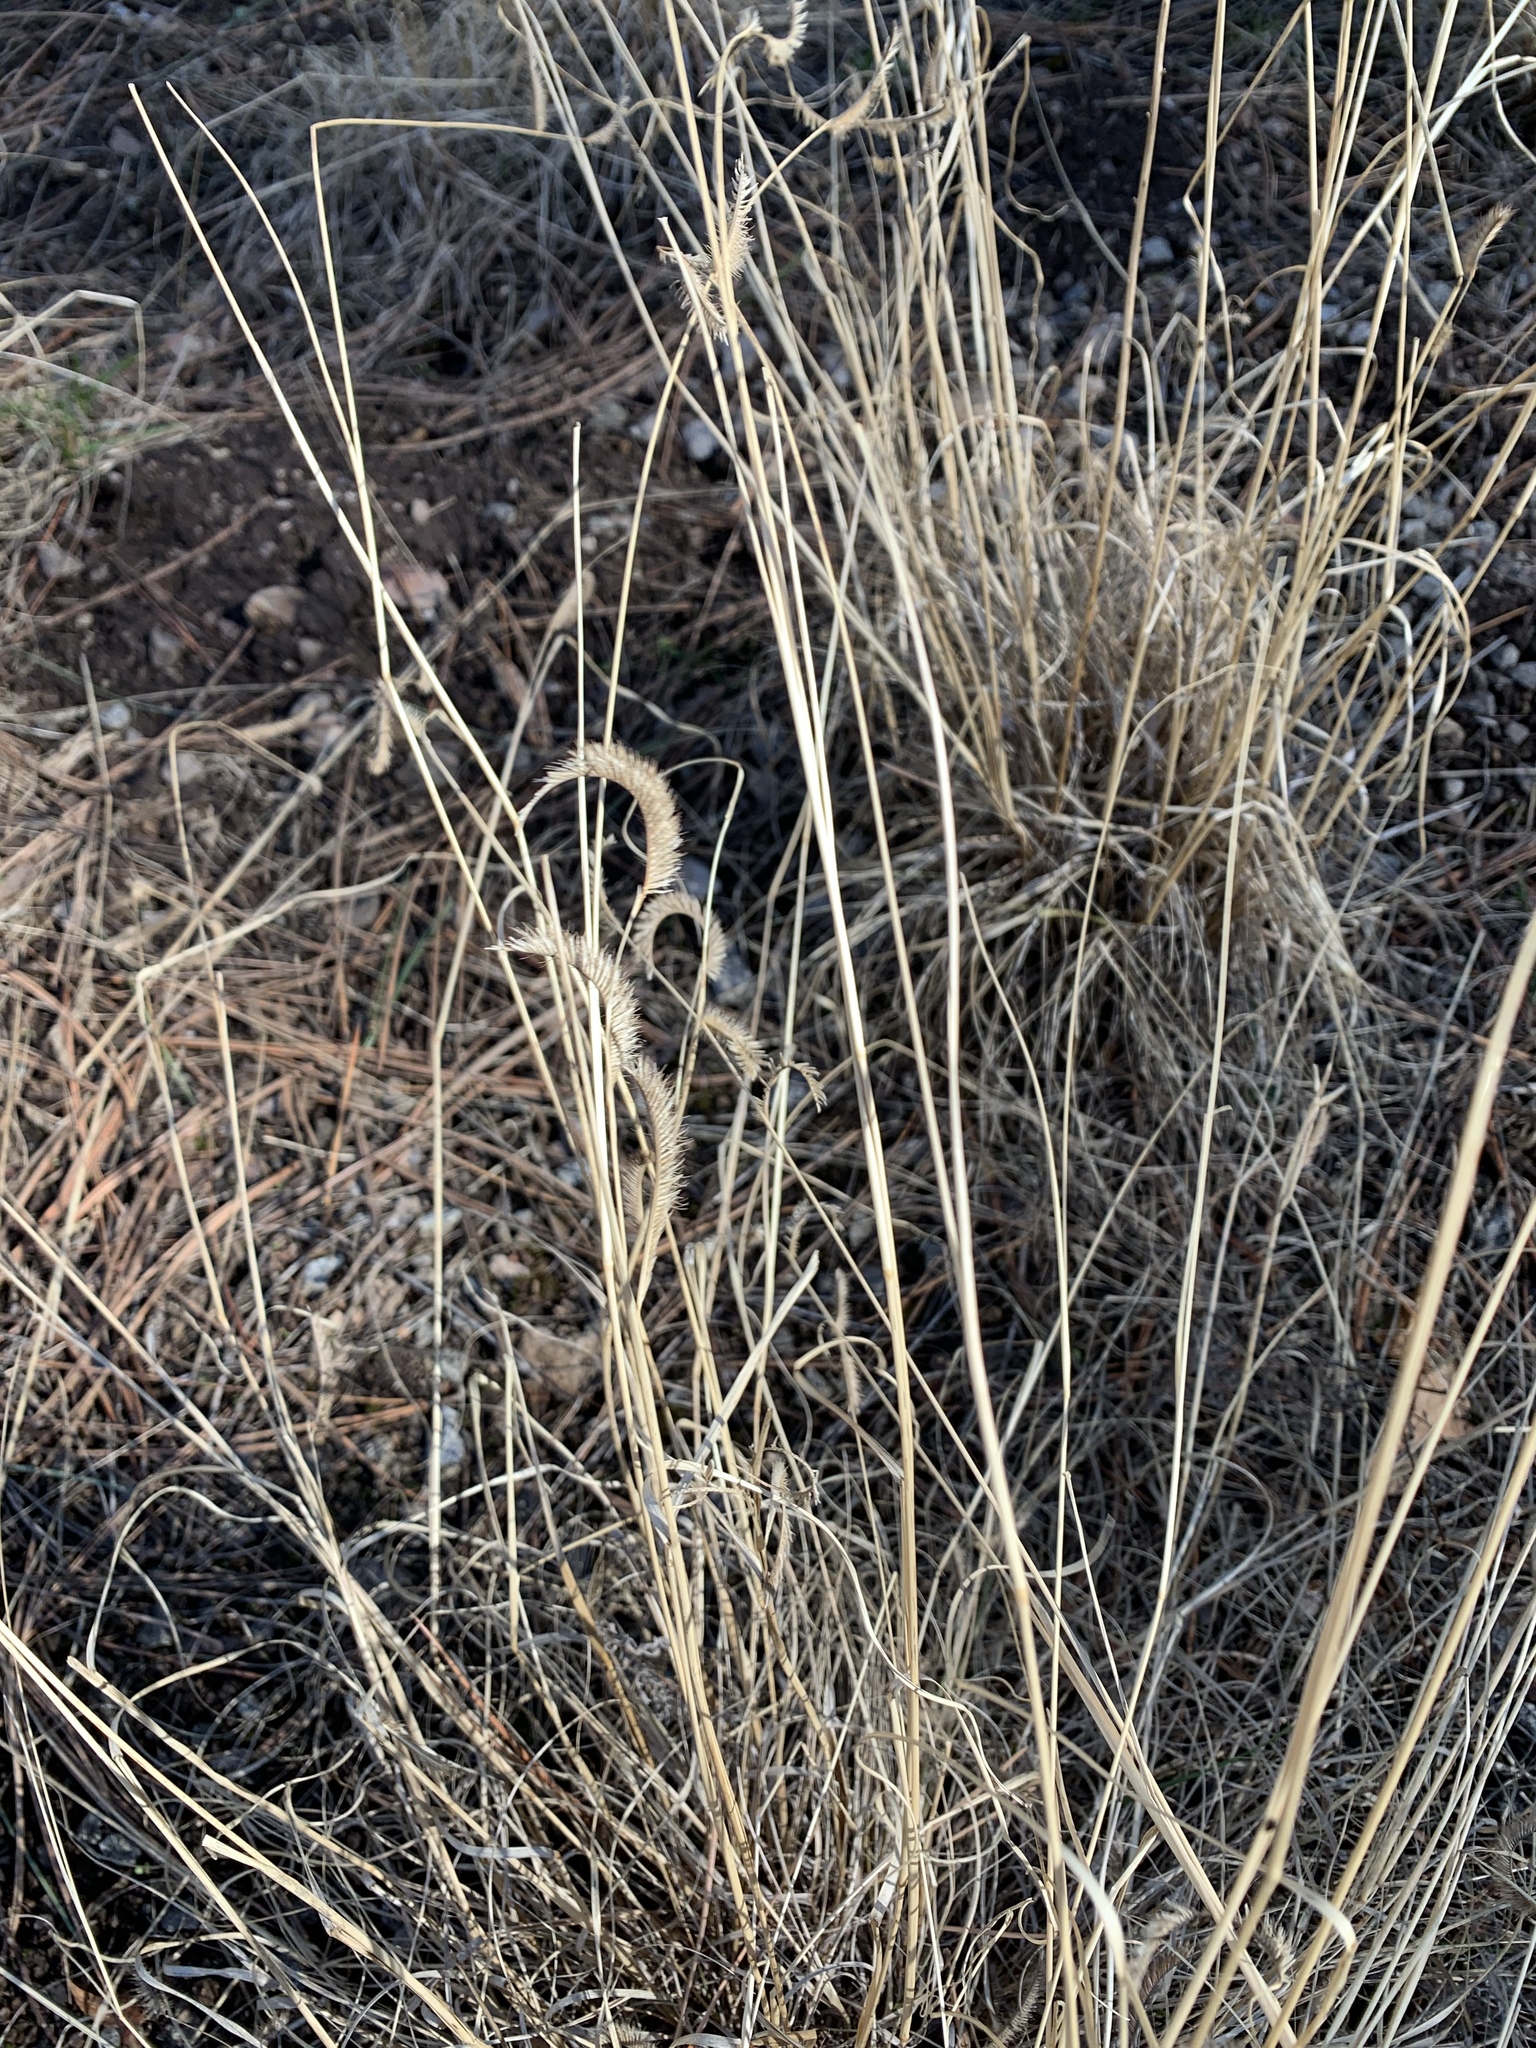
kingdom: Plantae
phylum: Tracheophyta
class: Liliopsida
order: Poales
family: Poaceae
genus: Bouteloua
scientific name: Bouteloua gracilis
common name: Blue grama
